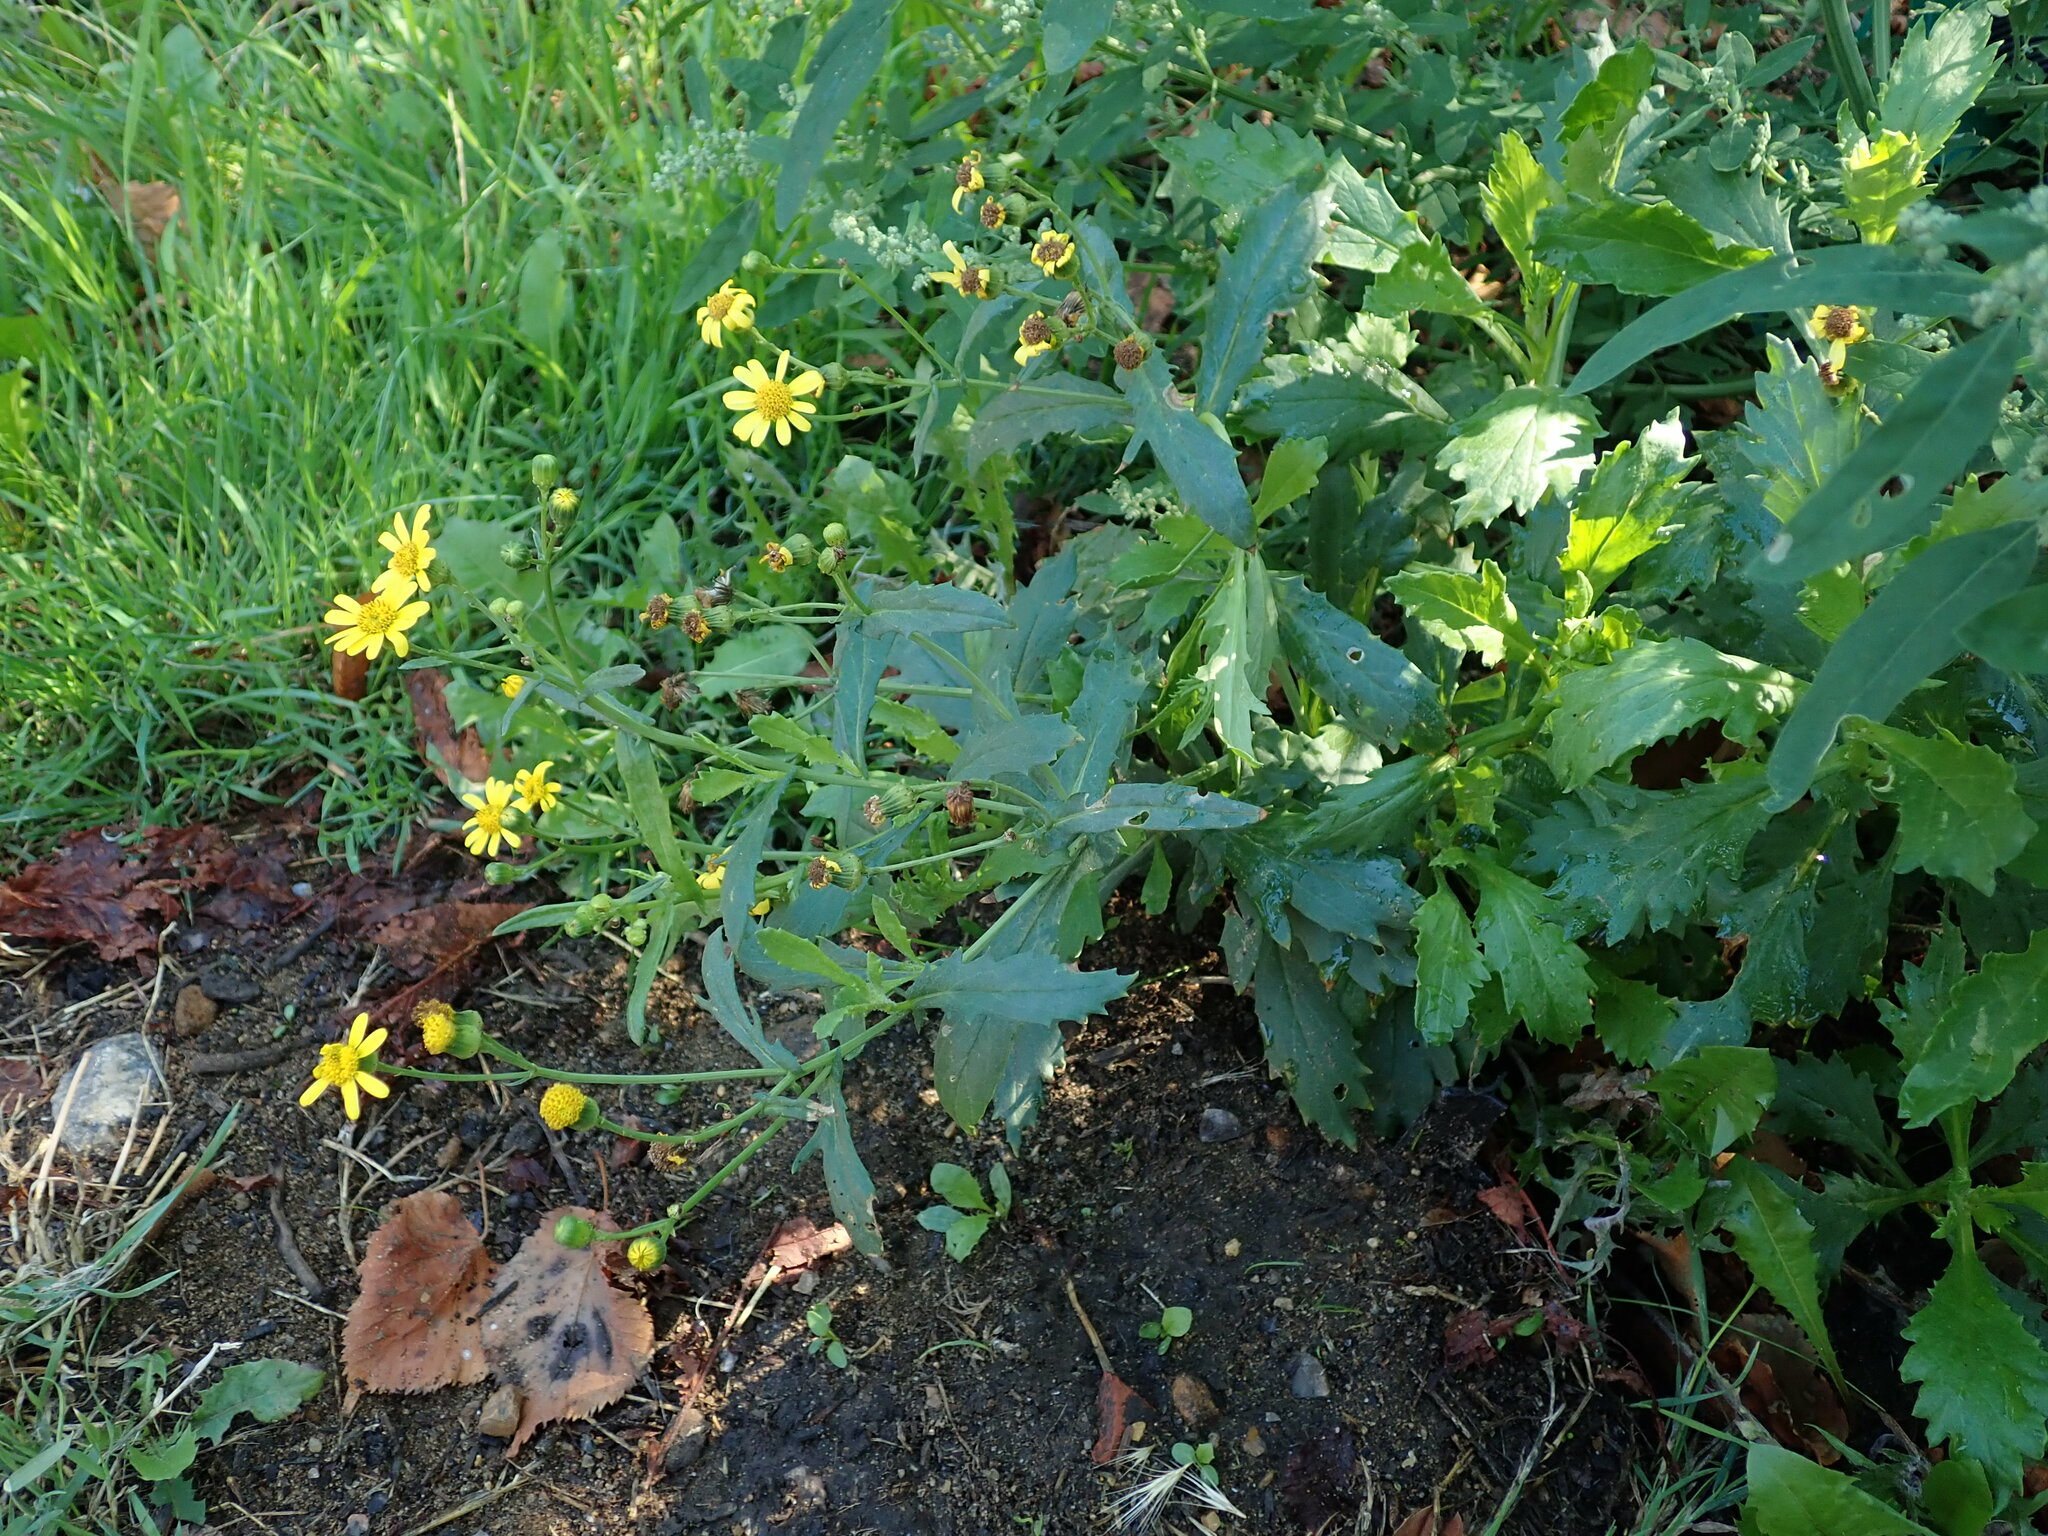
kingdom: Plantae
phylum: Tracheophyta
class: Magnoliopsida
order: Asterales
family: Asteraceae
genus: Senecio
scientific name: Senecio squalidus
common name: Oxford ragwort
